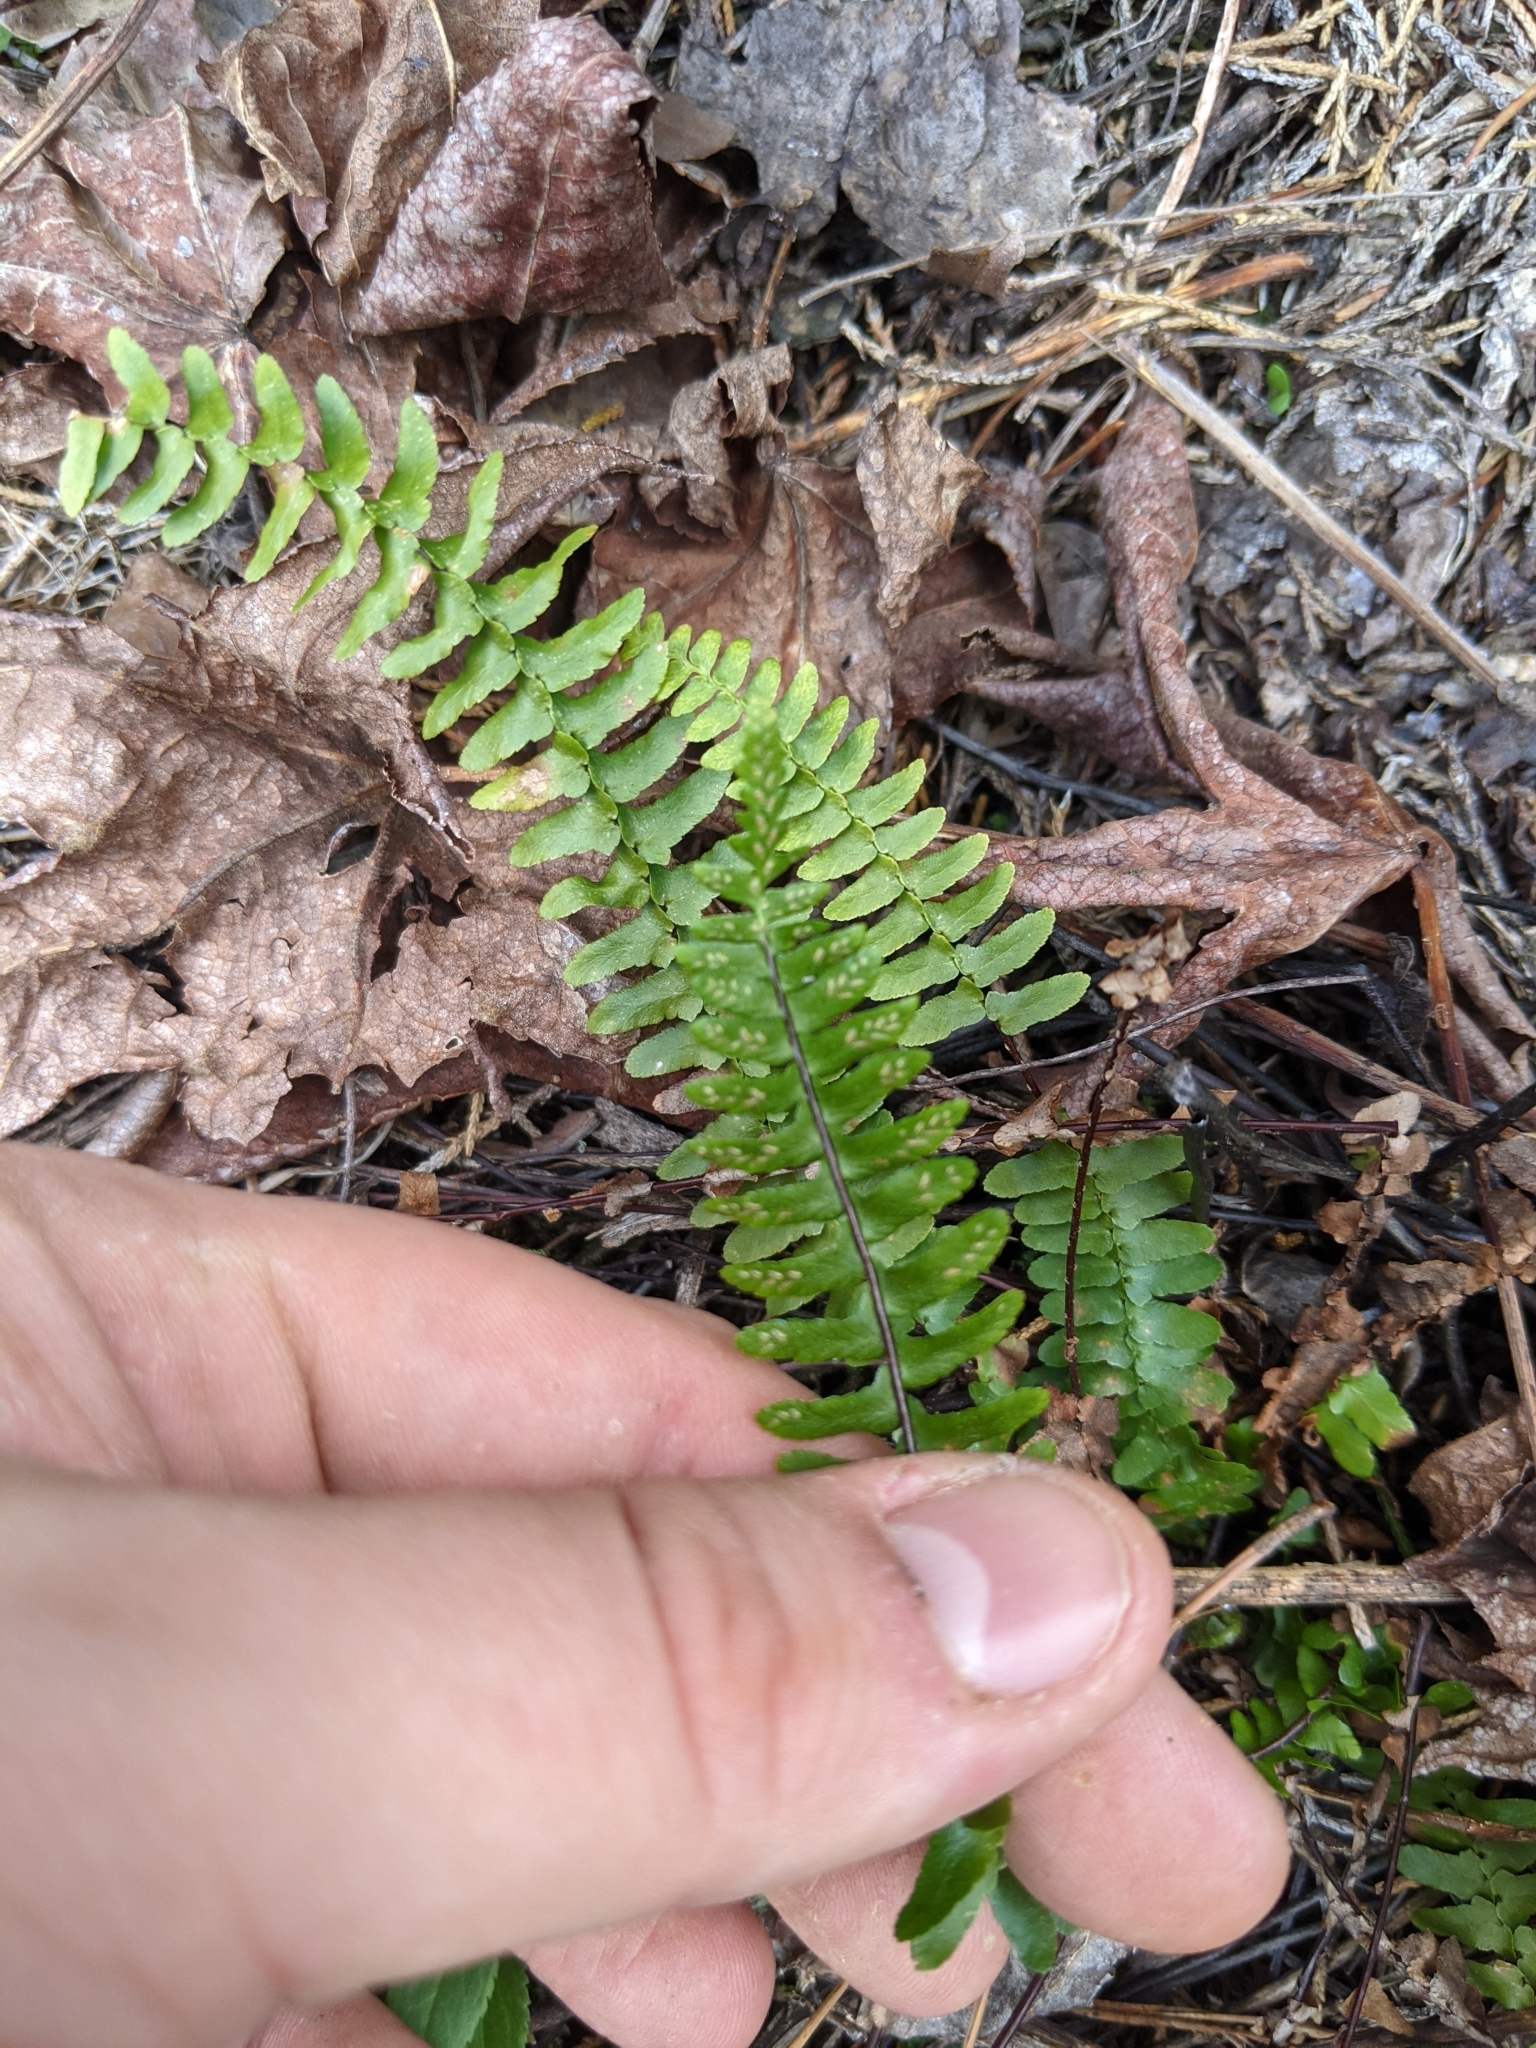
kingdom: Plantae
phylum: Tracheophyta
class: Polypodiopsida
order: Polypodiales
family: Aspleniaceae
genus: Asplenium
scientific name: Asplenium platyneuron
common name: Ebony spleenwort
